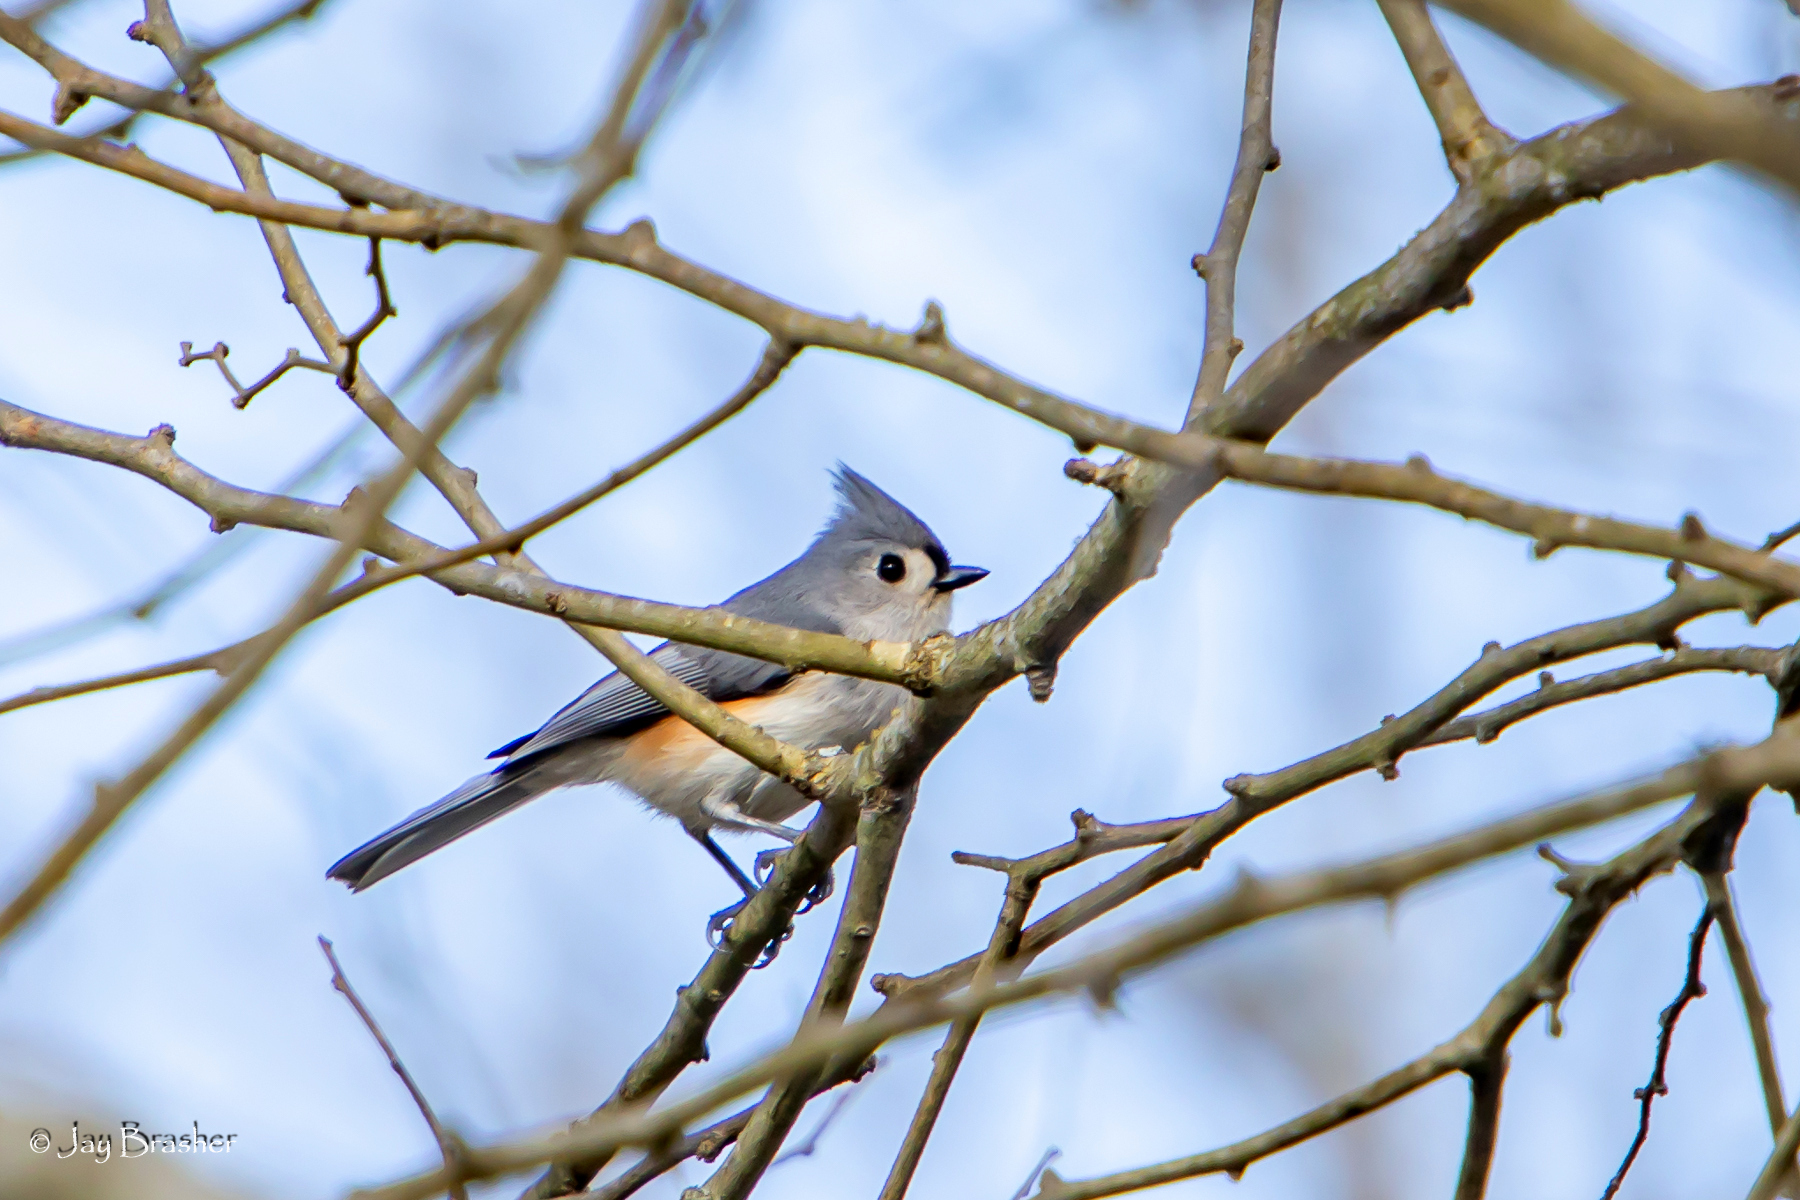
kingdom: Animalia
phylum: Chordata
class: Aves
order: Passeriformes
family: Paridae
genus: Baeolophus
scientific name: Baeolophus bicolor
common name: Tufted titmouse
